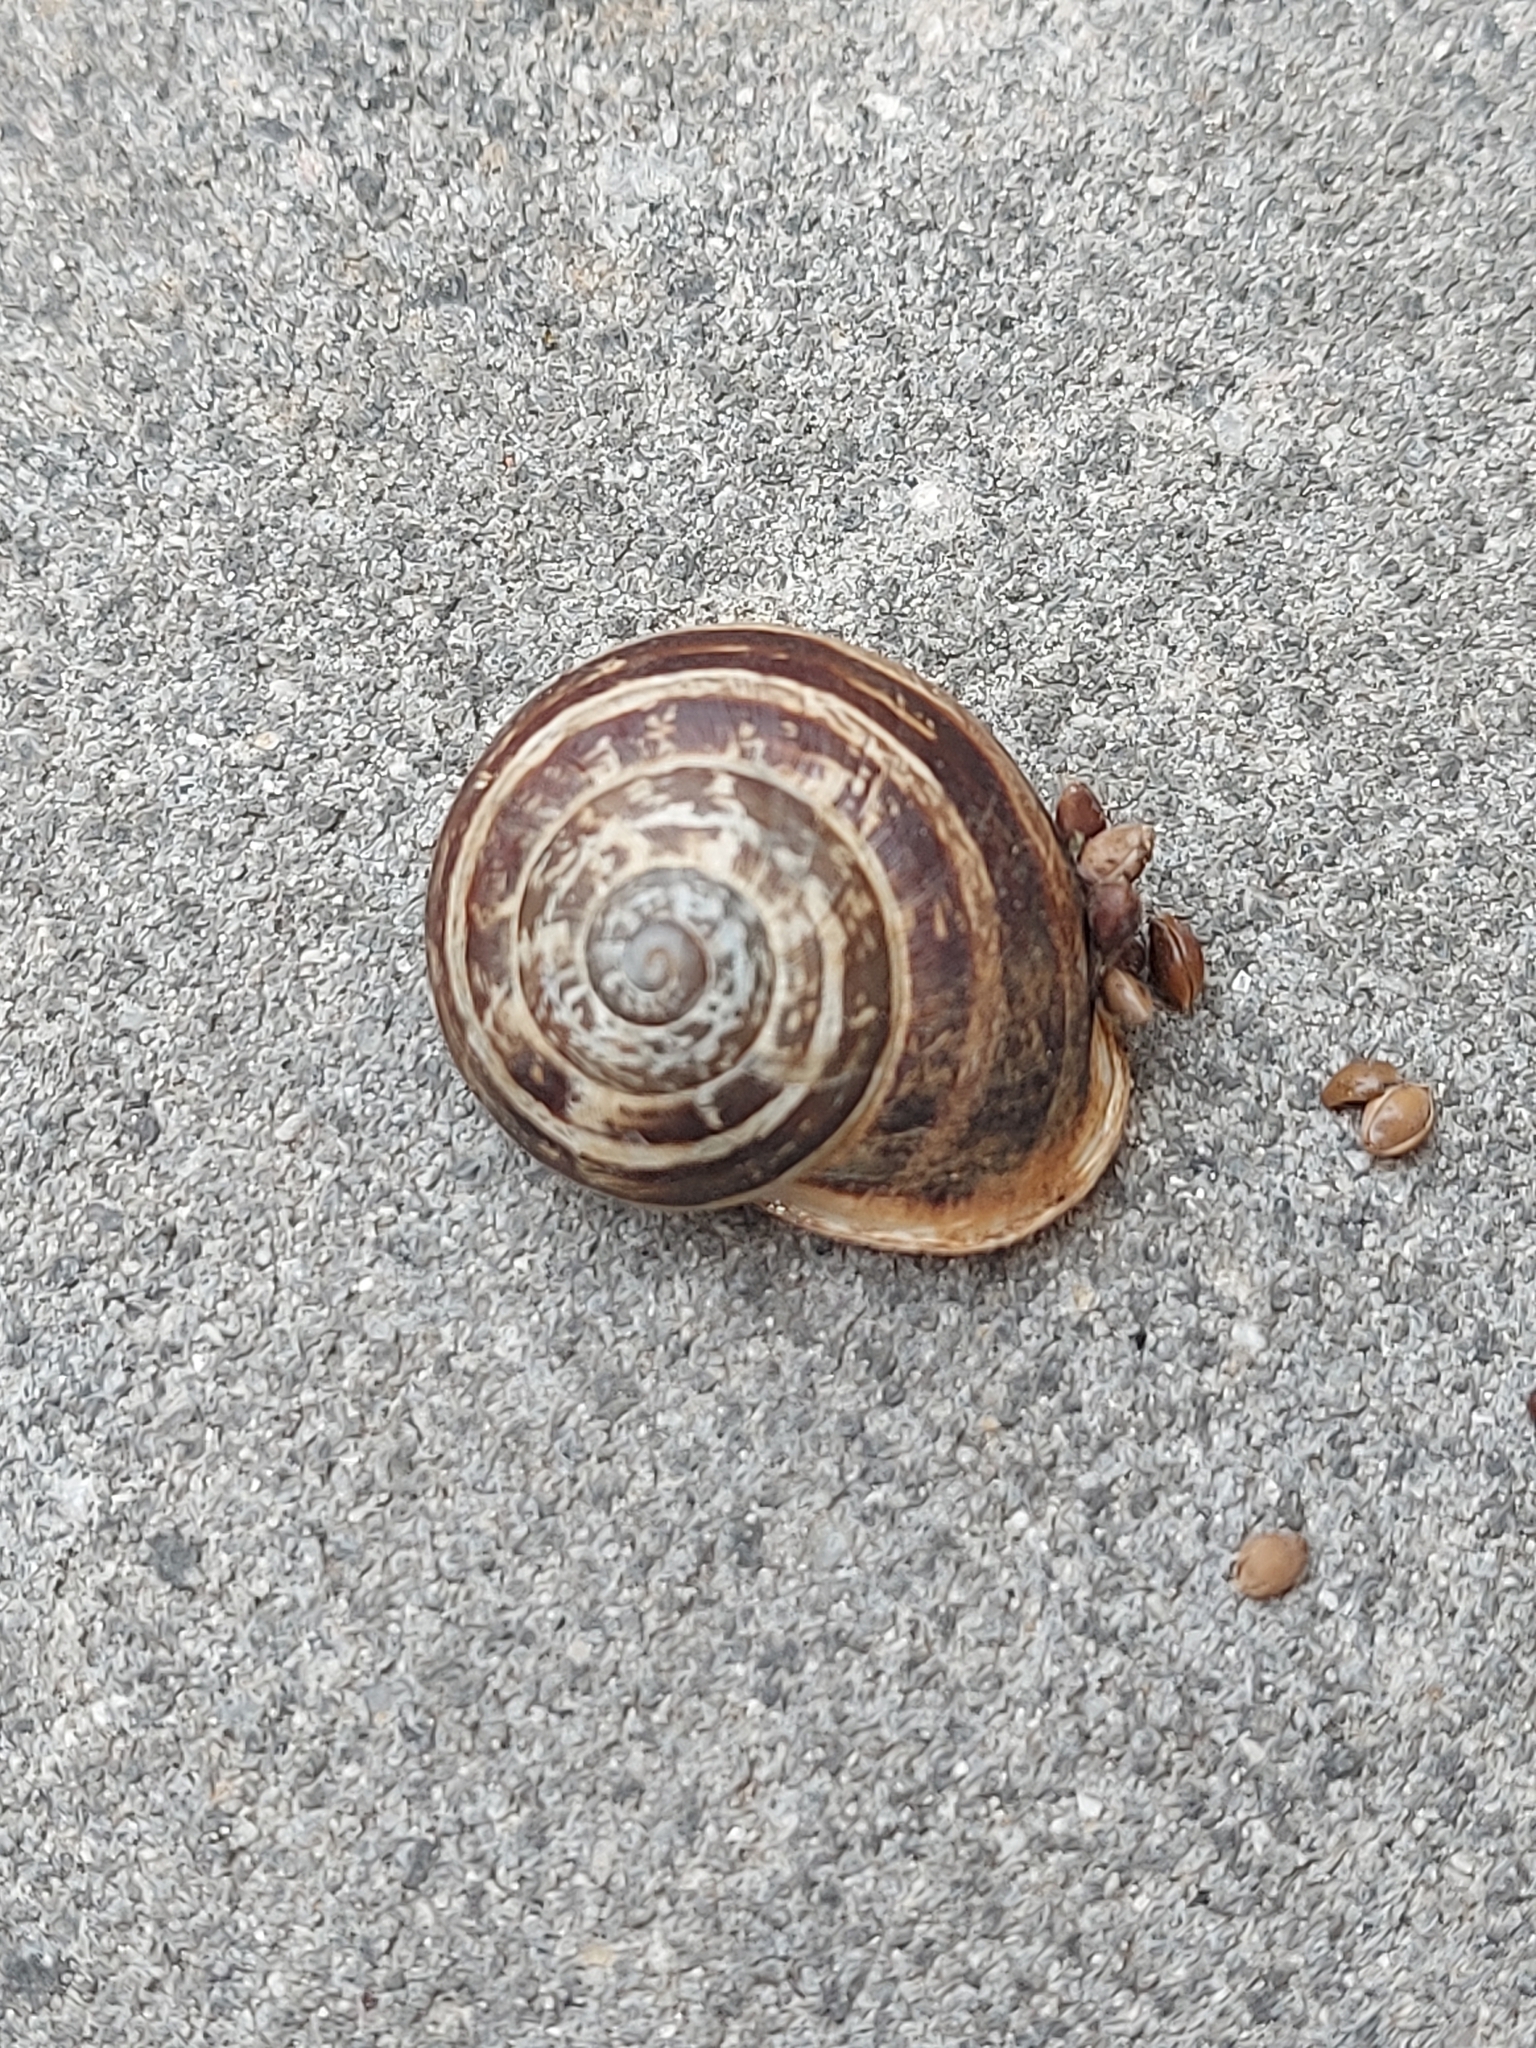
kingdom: Animalia
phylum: Mollusca
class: Gastropoda
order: Stylommatophora
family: Helicidae
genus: Eobania
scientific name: Eobania vermiculata
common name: Chocolateband snail
